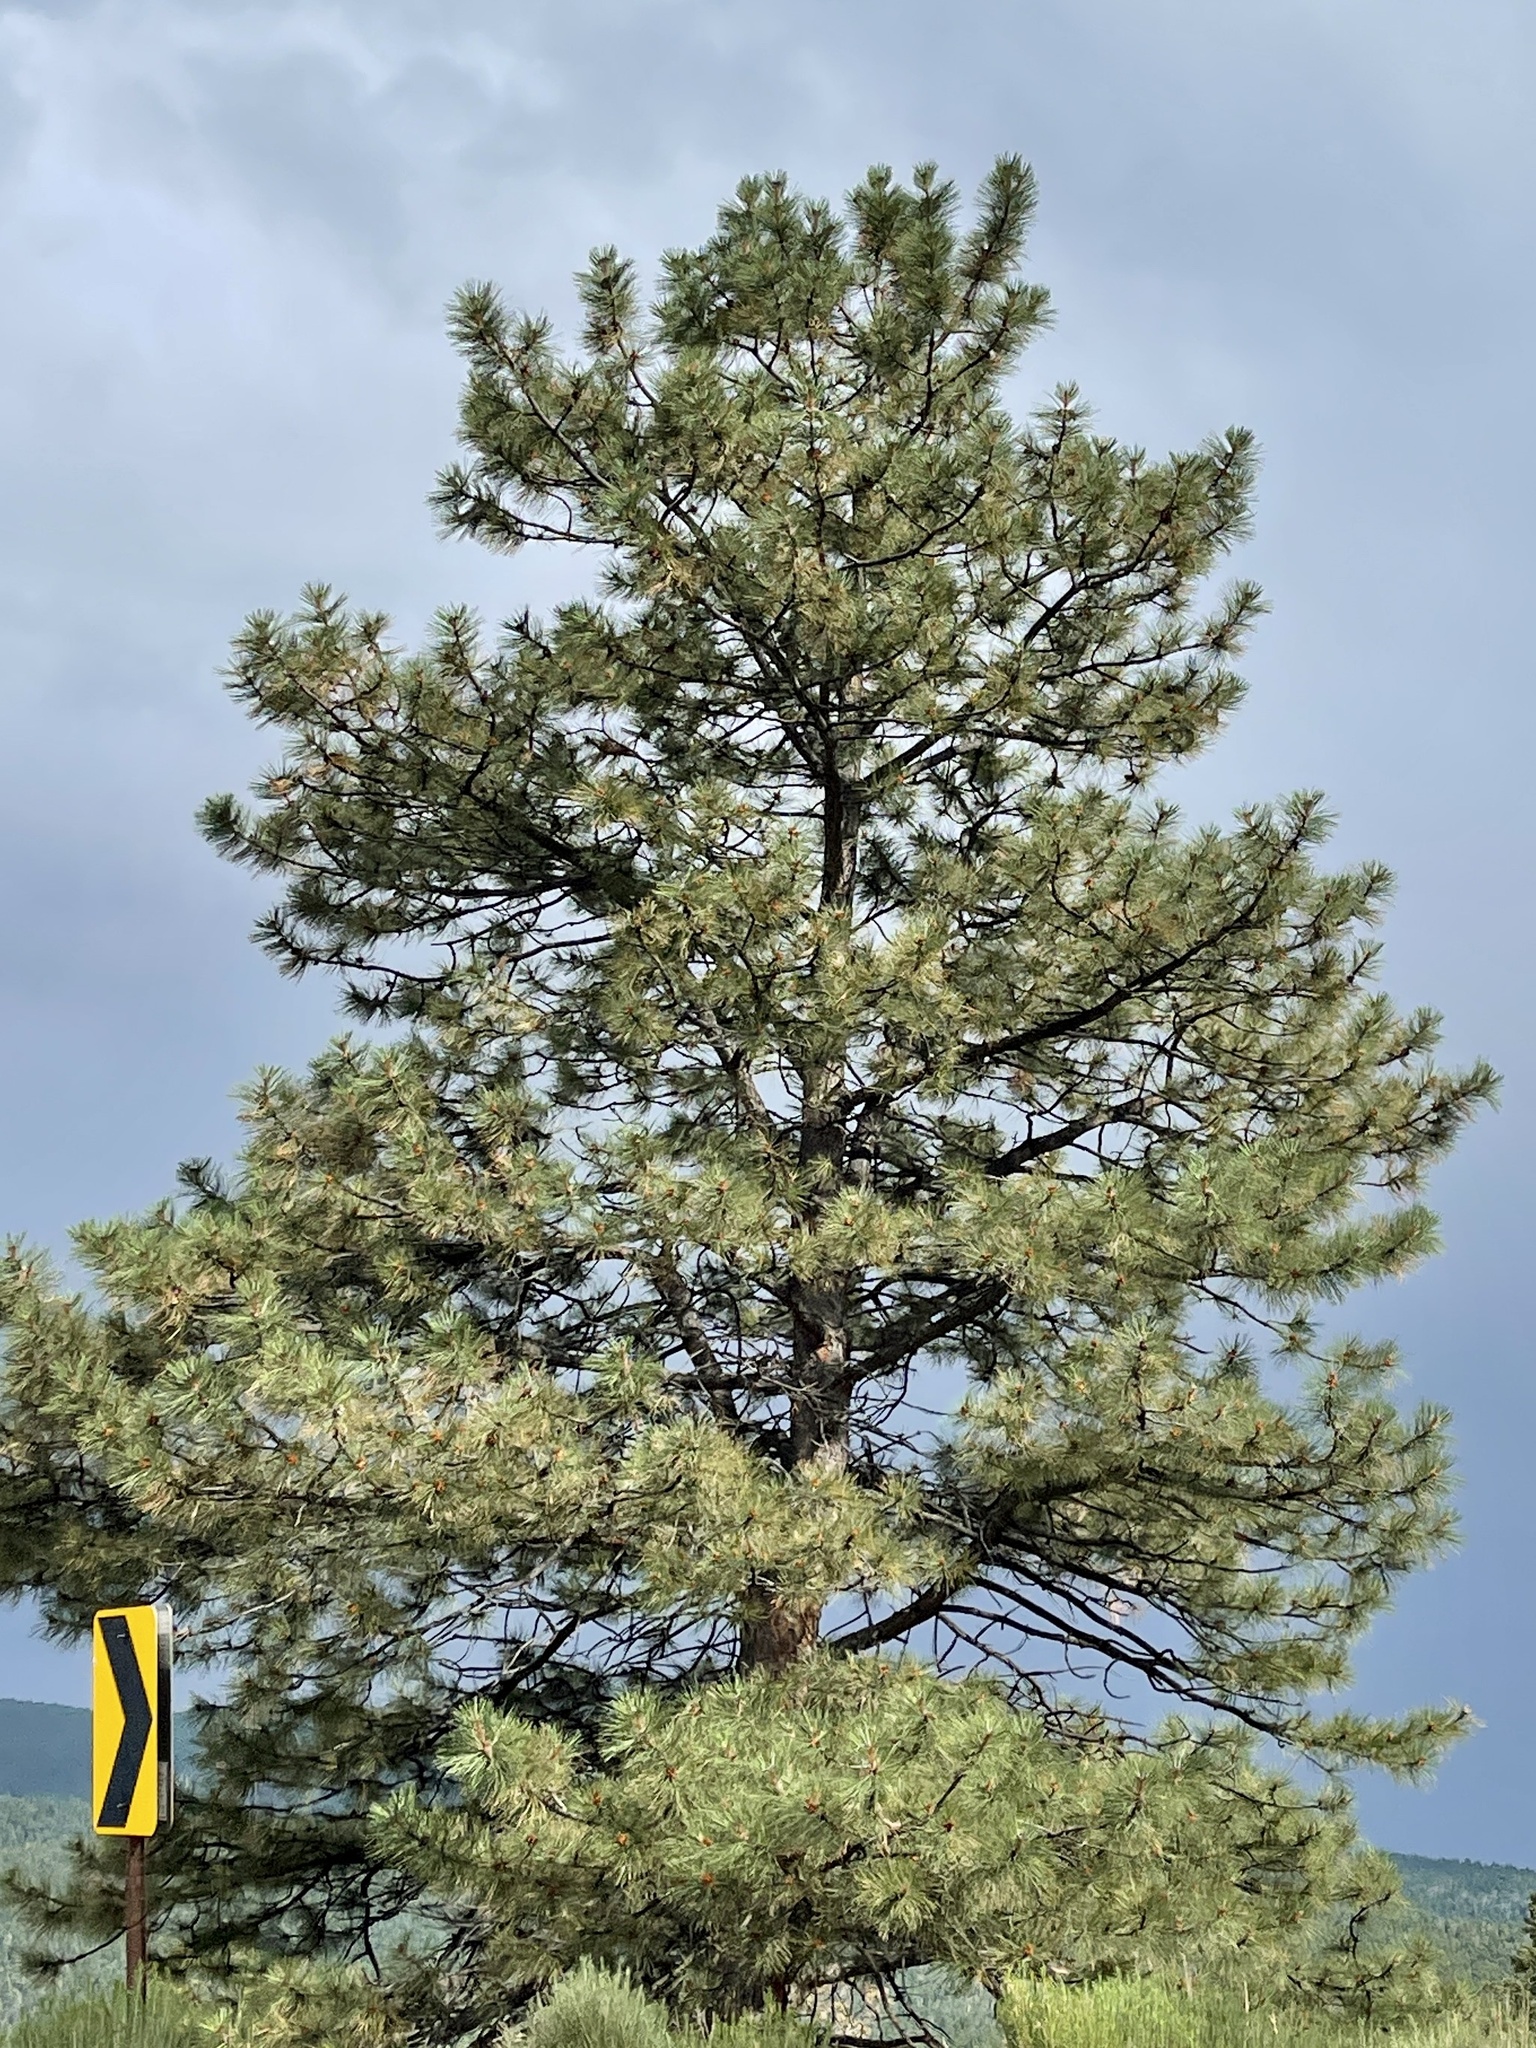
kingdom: Plantae
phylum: Tracheophyta
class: Pinopsida
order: Pinales
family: Pinaceae
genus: Pinus
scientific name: Pinus ponderosa
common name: Western yellow-pine
